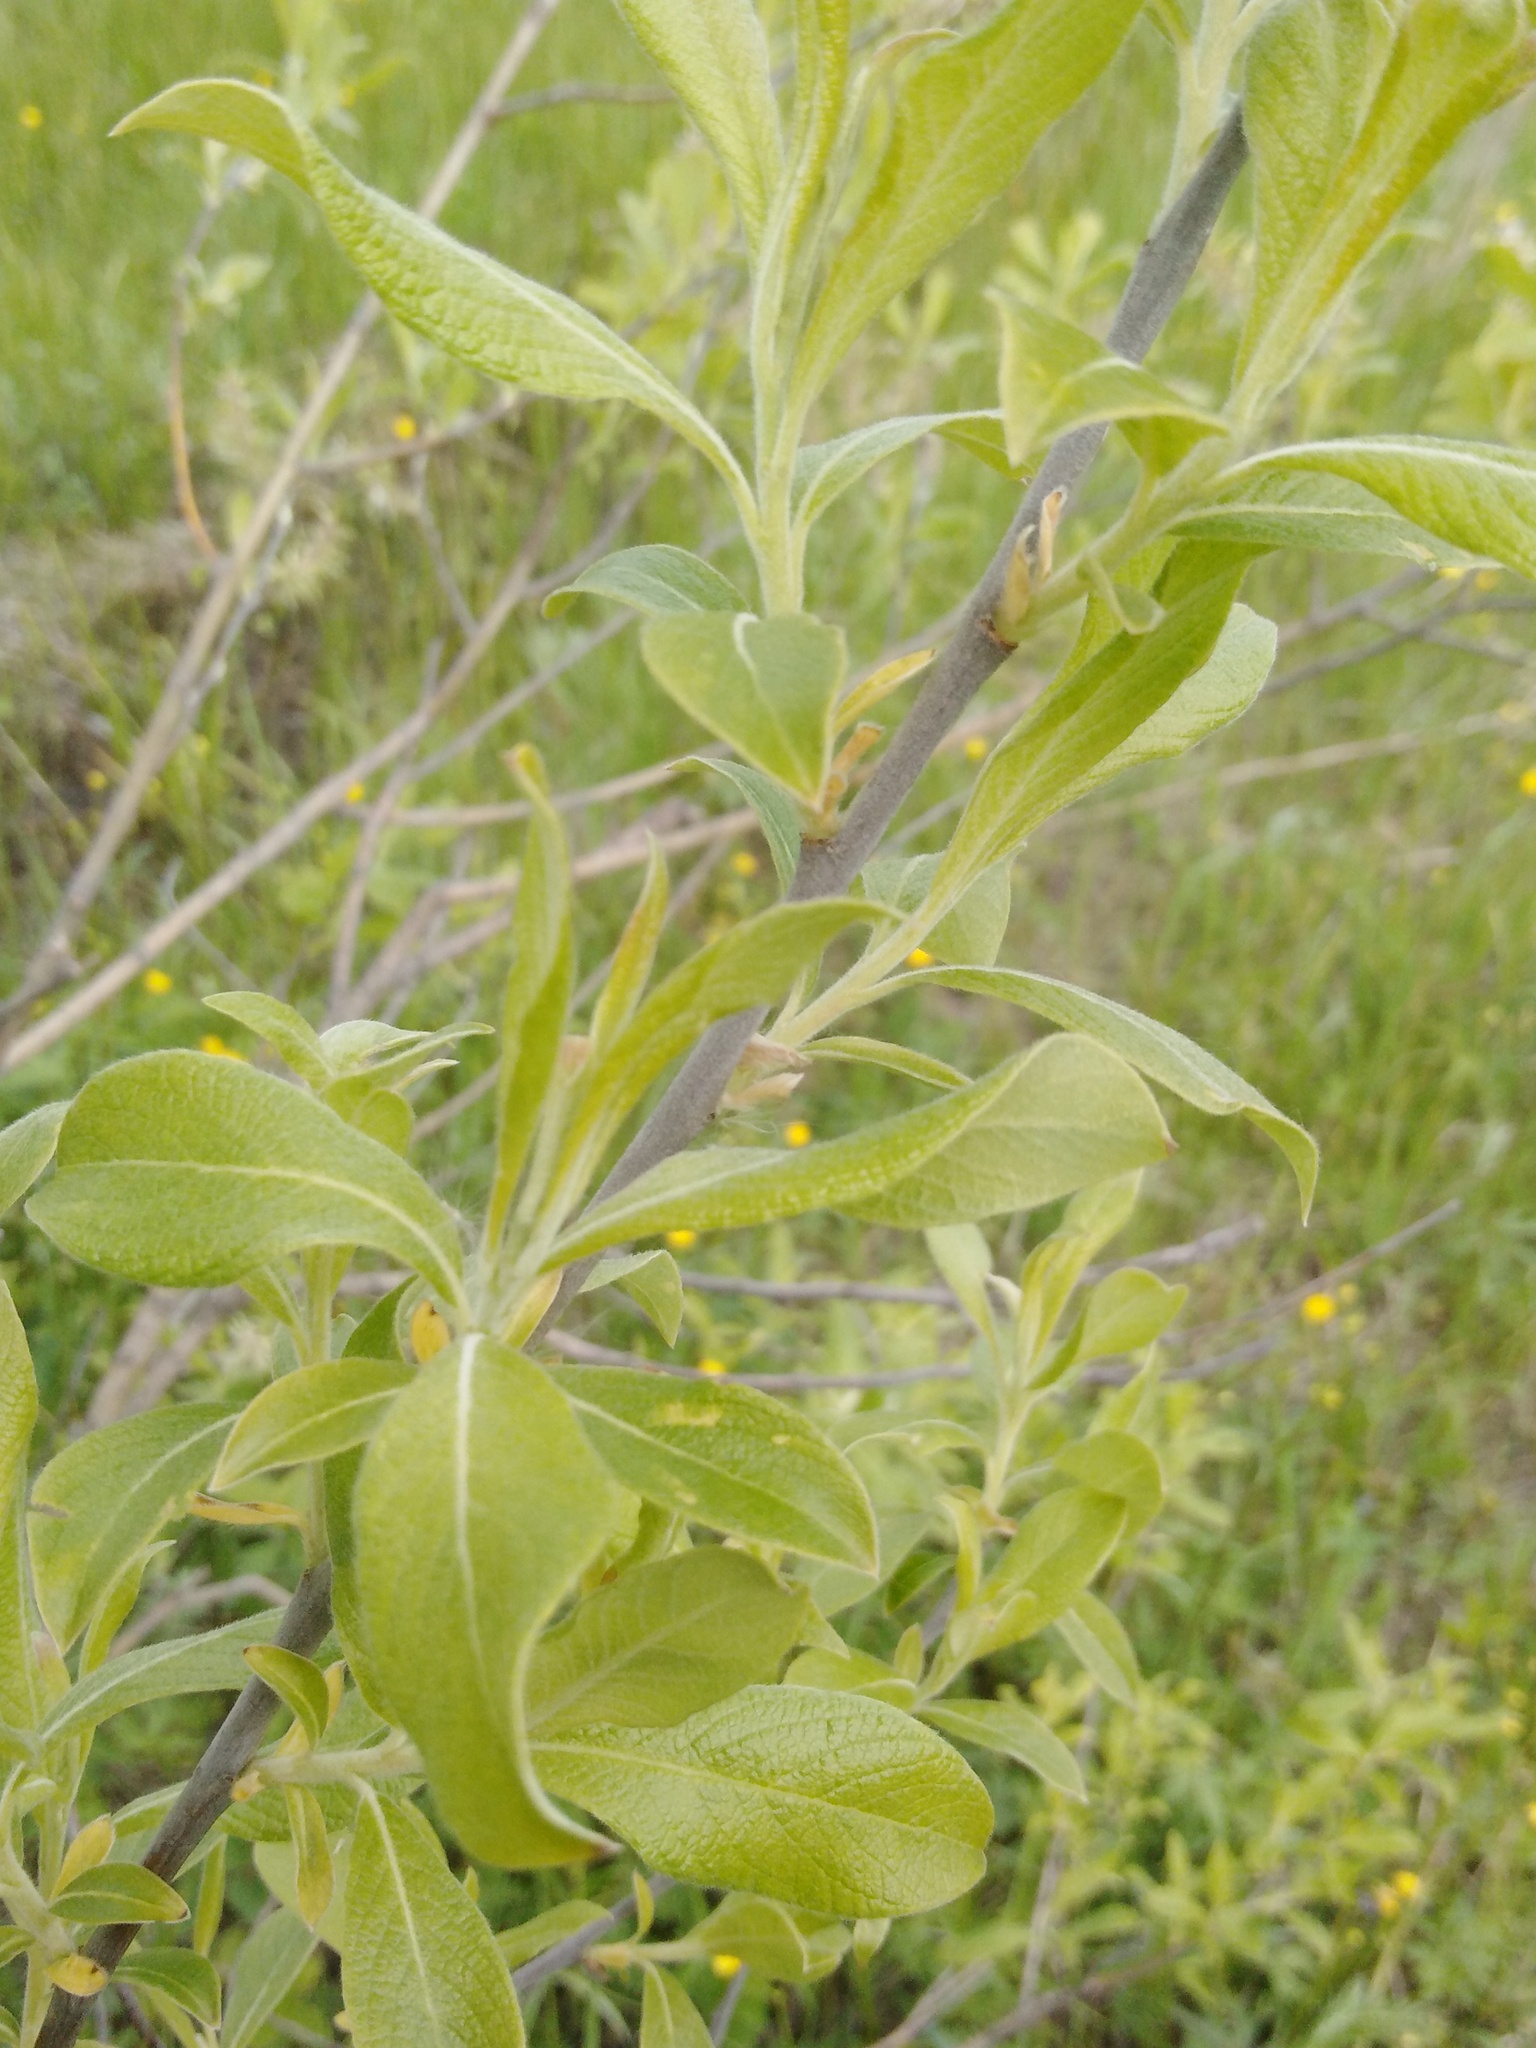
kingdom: Plantae
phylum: Tracheophyta
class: Magnoliopsida
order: Malpighiales
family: Salicaceae
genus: Salix
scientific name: Salix cinerea
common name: Common sallow
